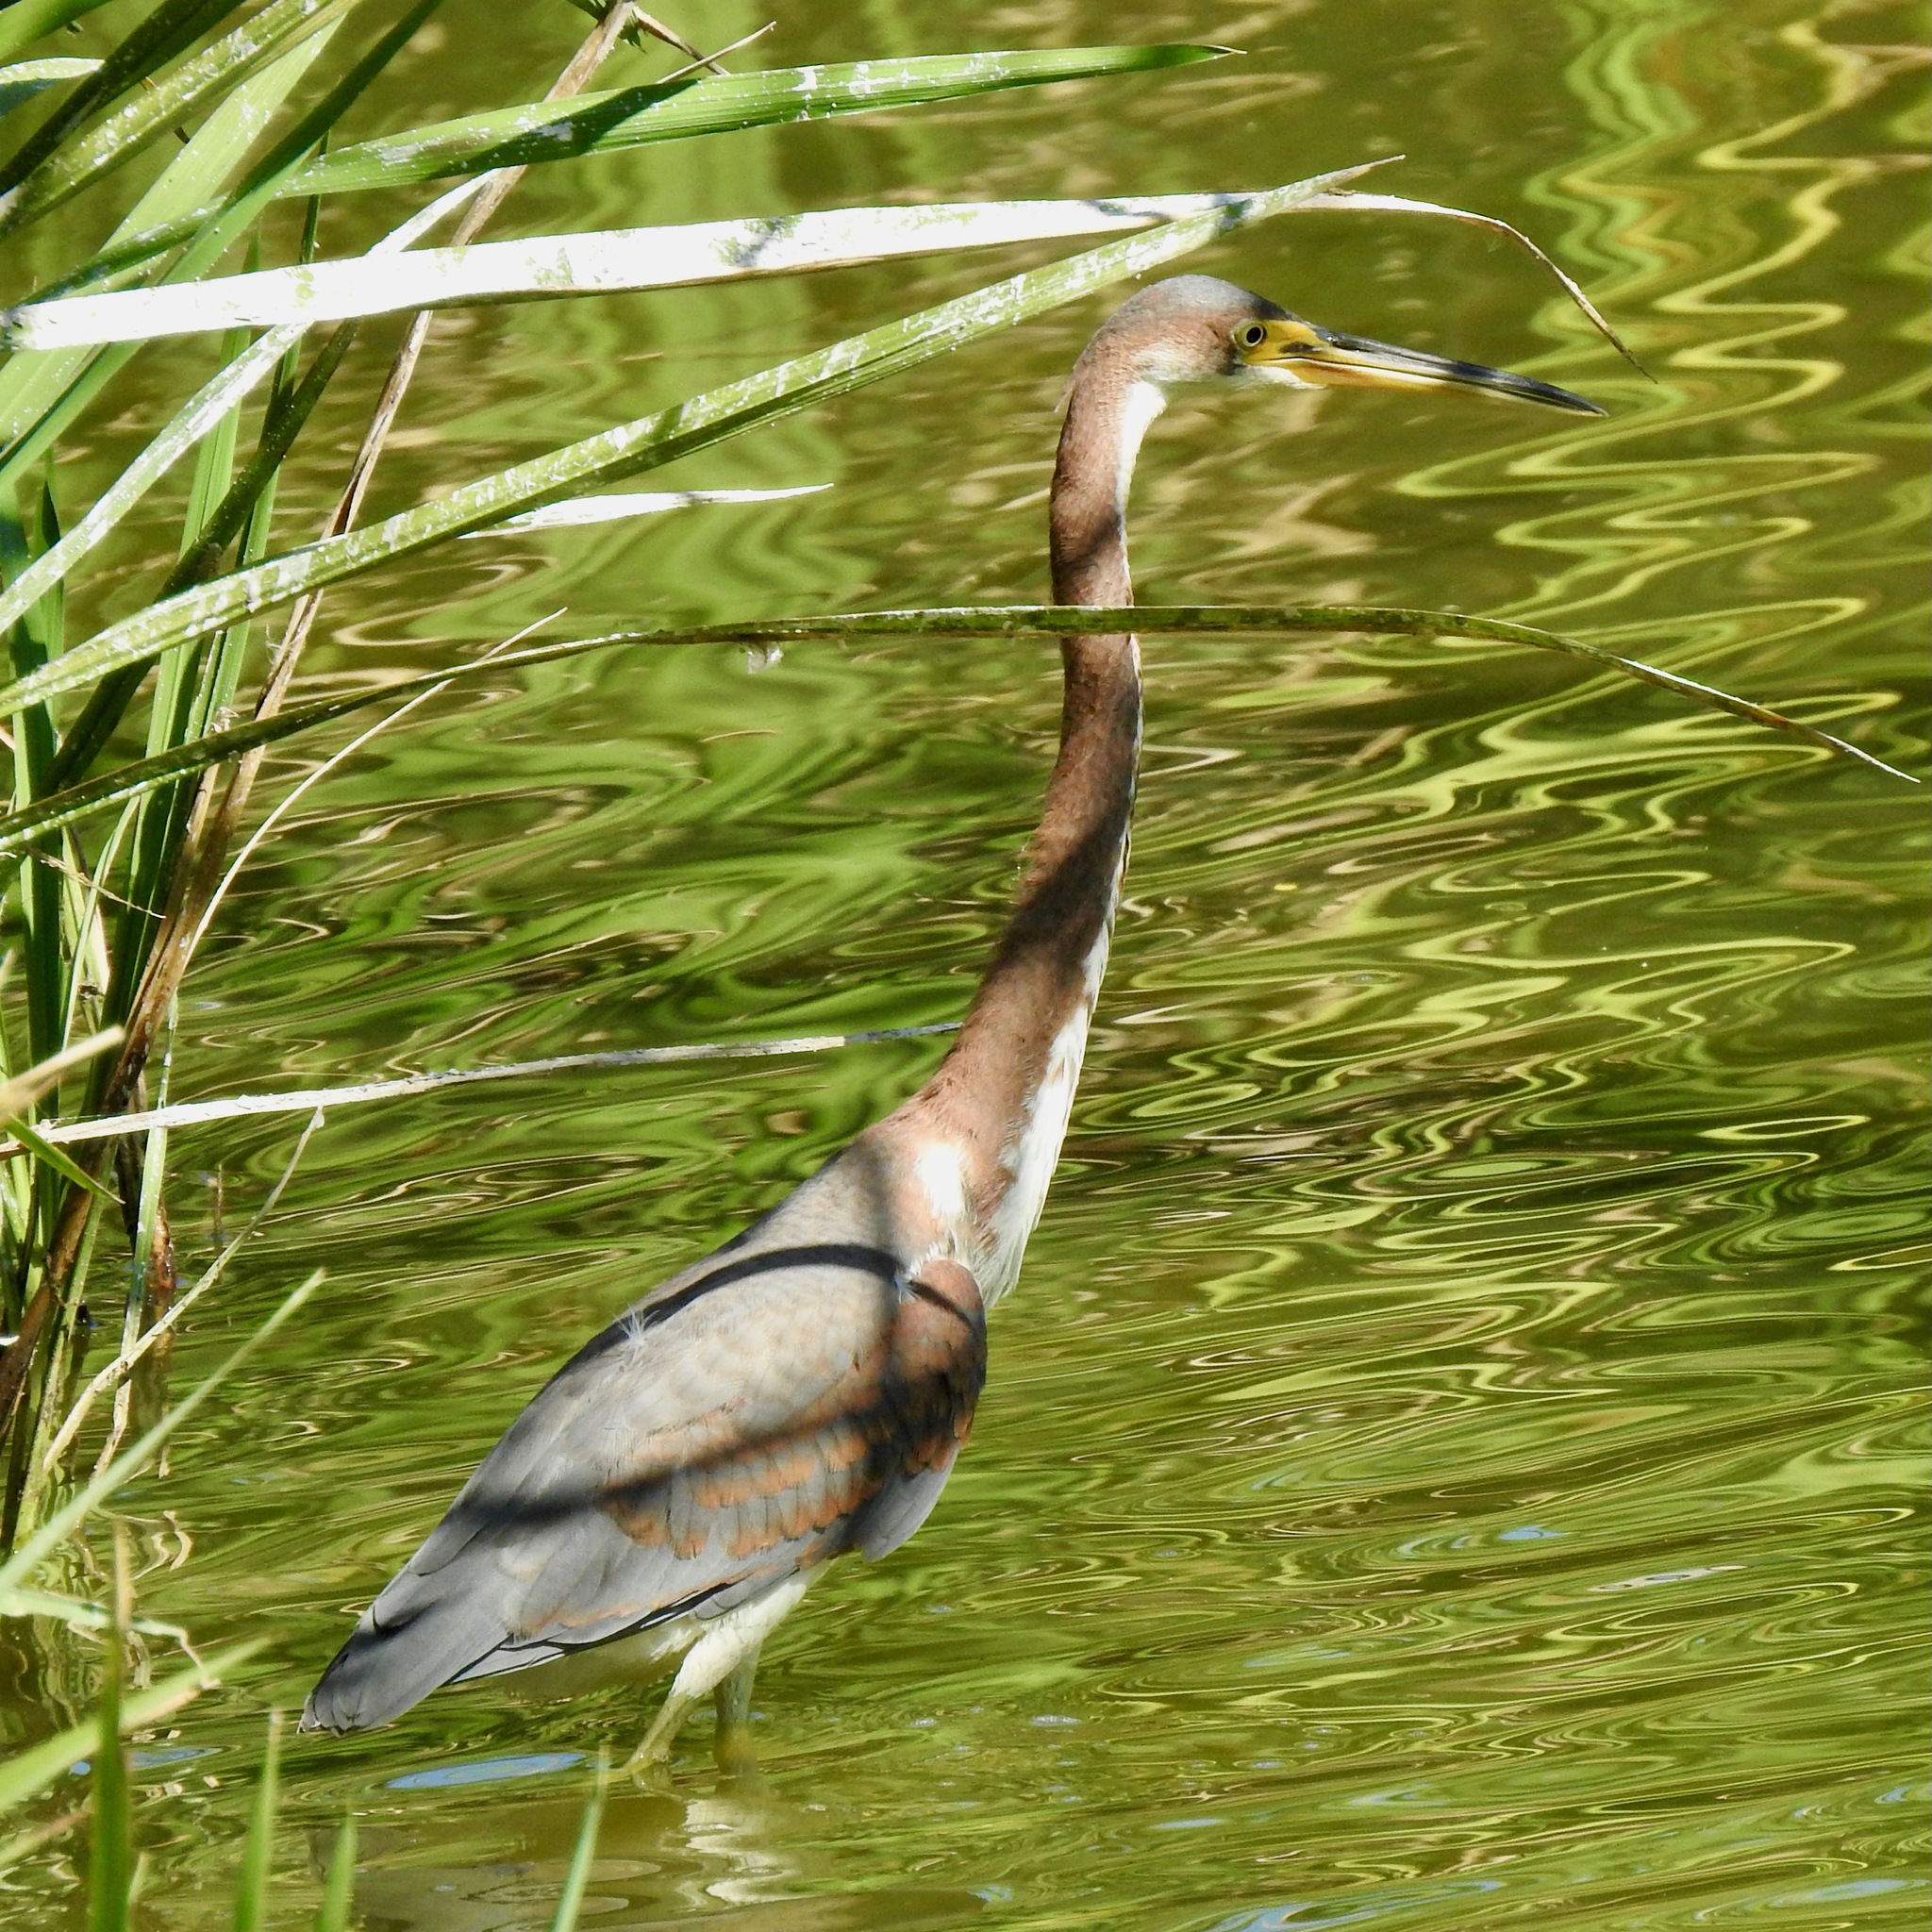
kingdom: Animalia
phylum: Chordata
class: Aves
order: Pelecaniformes
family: Ardeidae
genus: Egretta
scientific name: Egretta tricolor
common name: Tricolored heron
